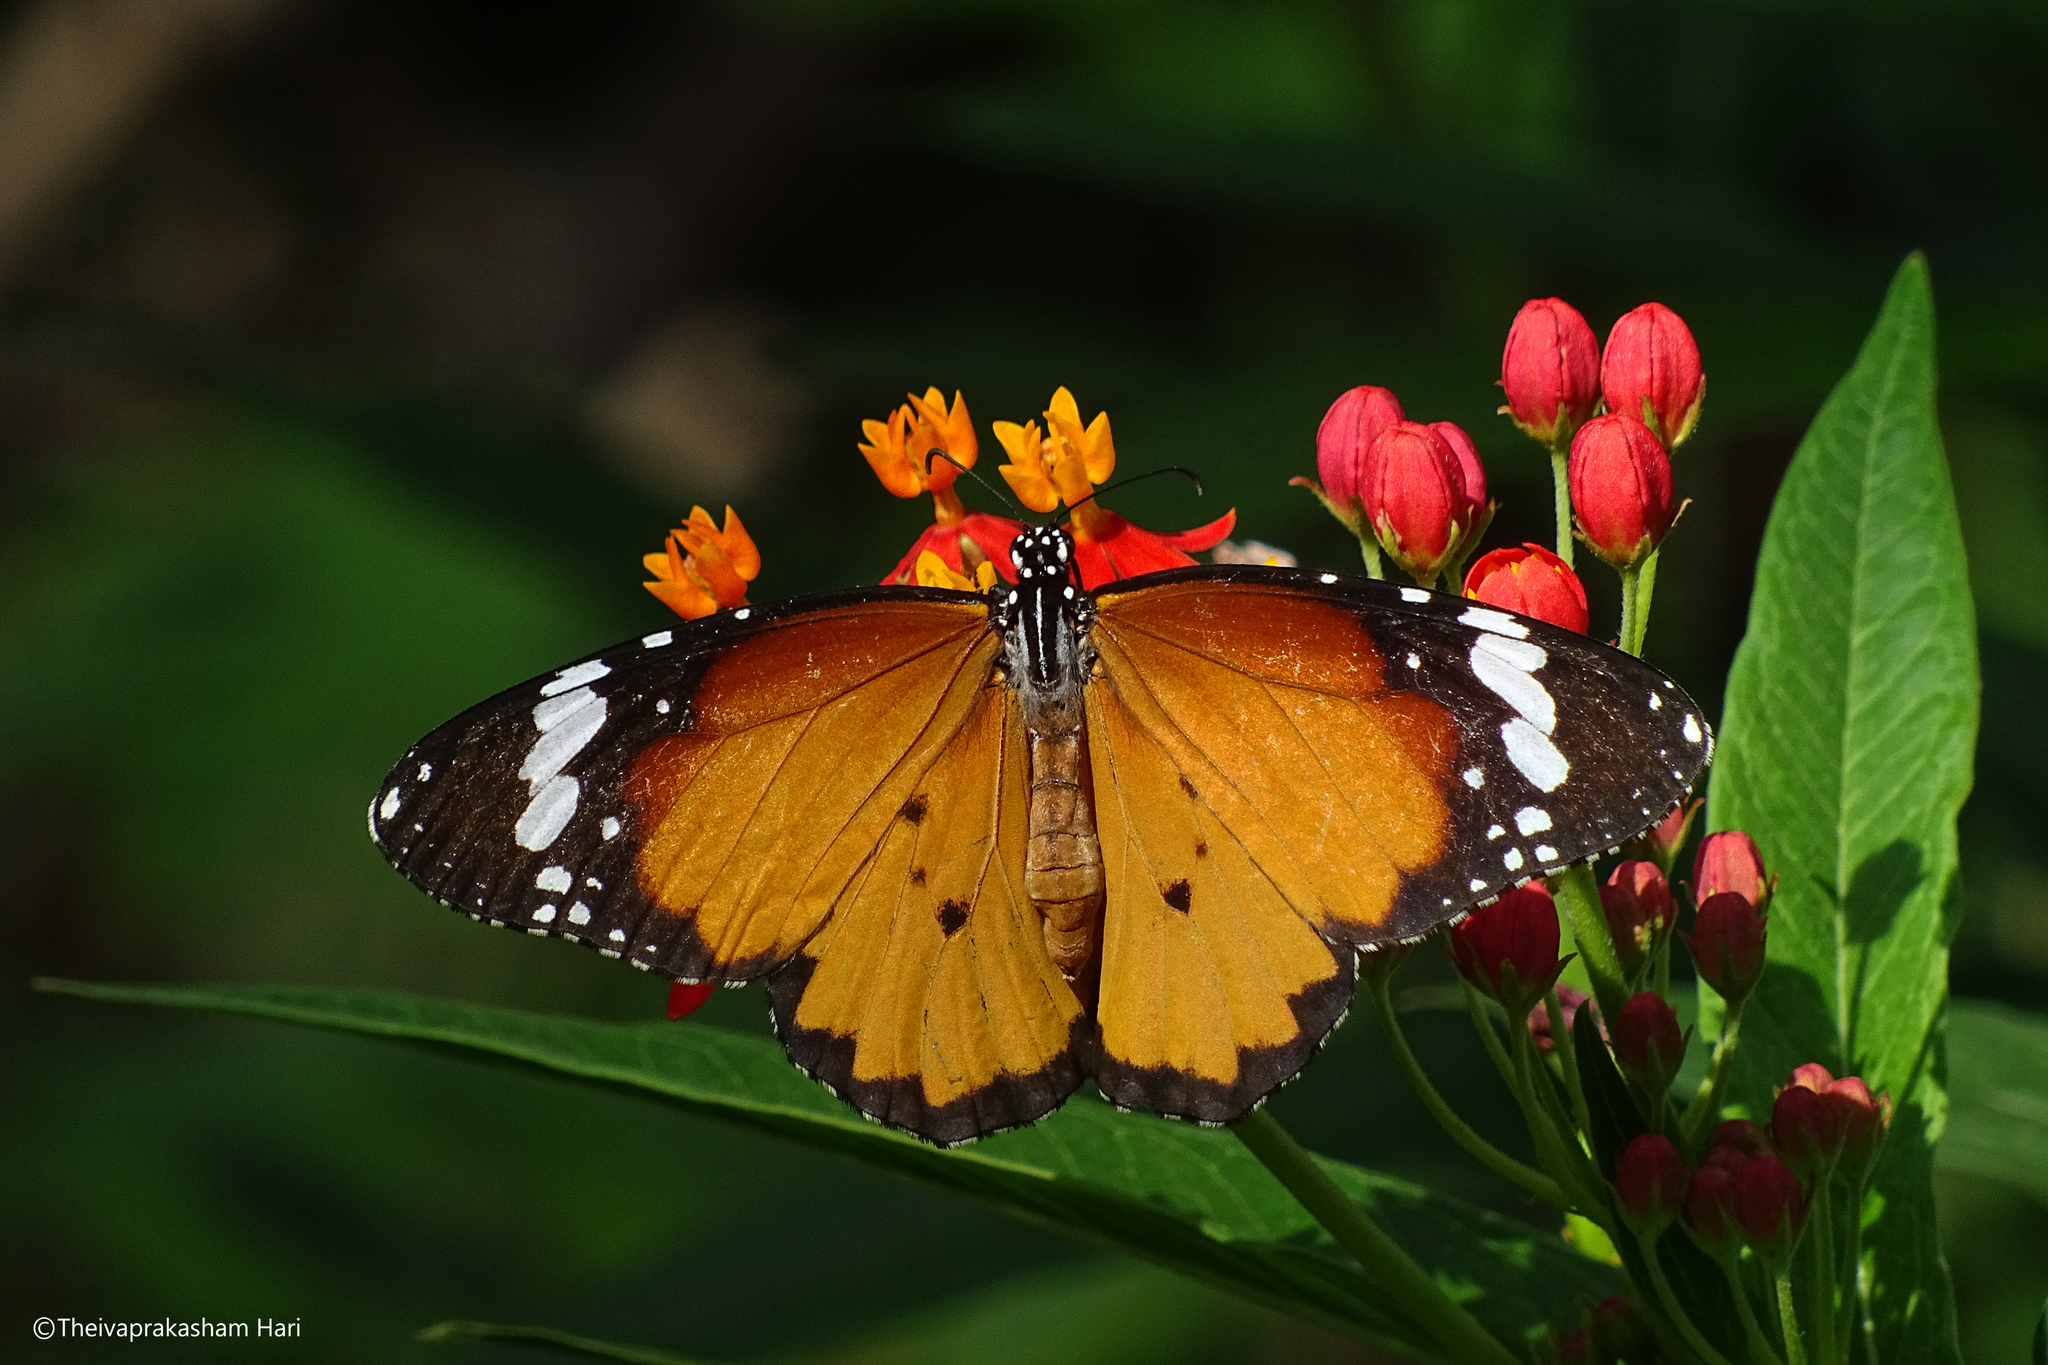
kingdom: Animalia
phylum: Arthropoda
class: Insecta
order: Lepidoptera
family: Nymphalidae
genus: Danaus
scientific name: Danaus chrysippus
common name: Plain tiger
